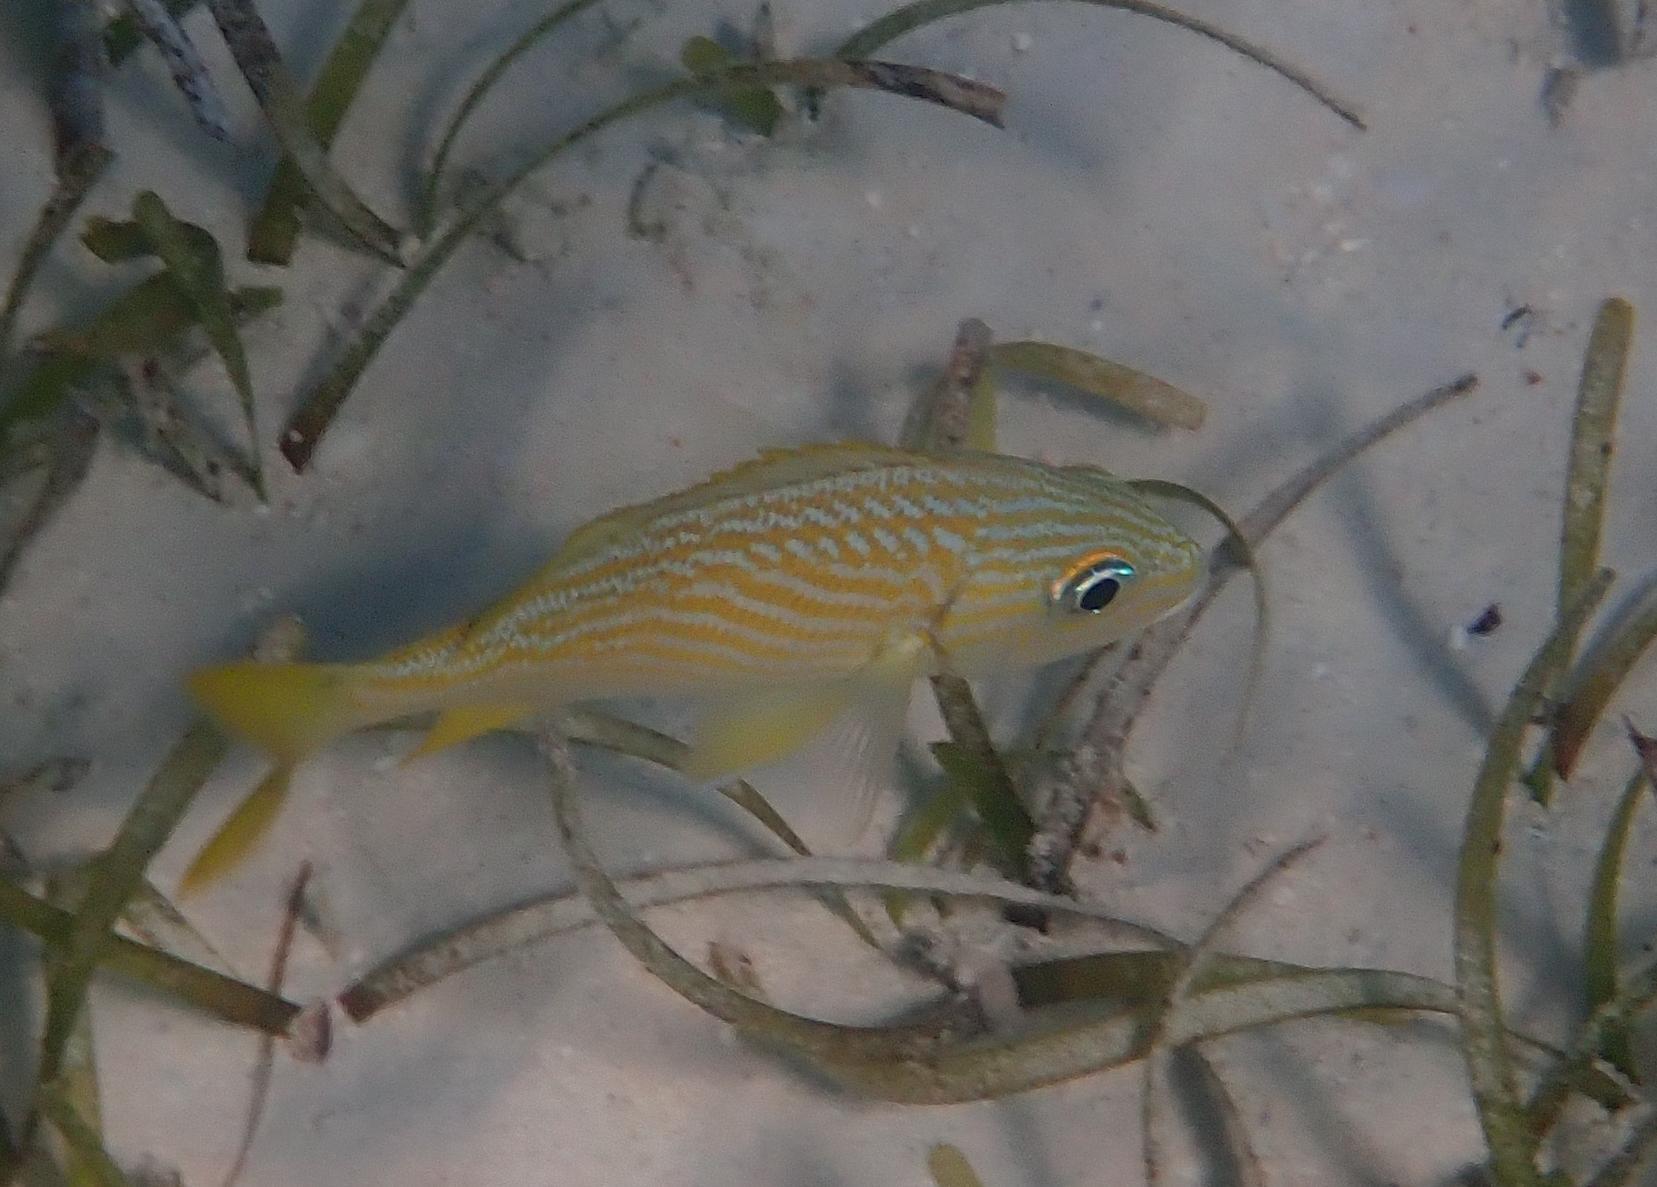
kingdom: Animalia
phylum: Chordata
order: Perciformes
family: Haemulidae
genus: Haemulon
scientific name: Haemulon flavolineatum
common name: French grunt
